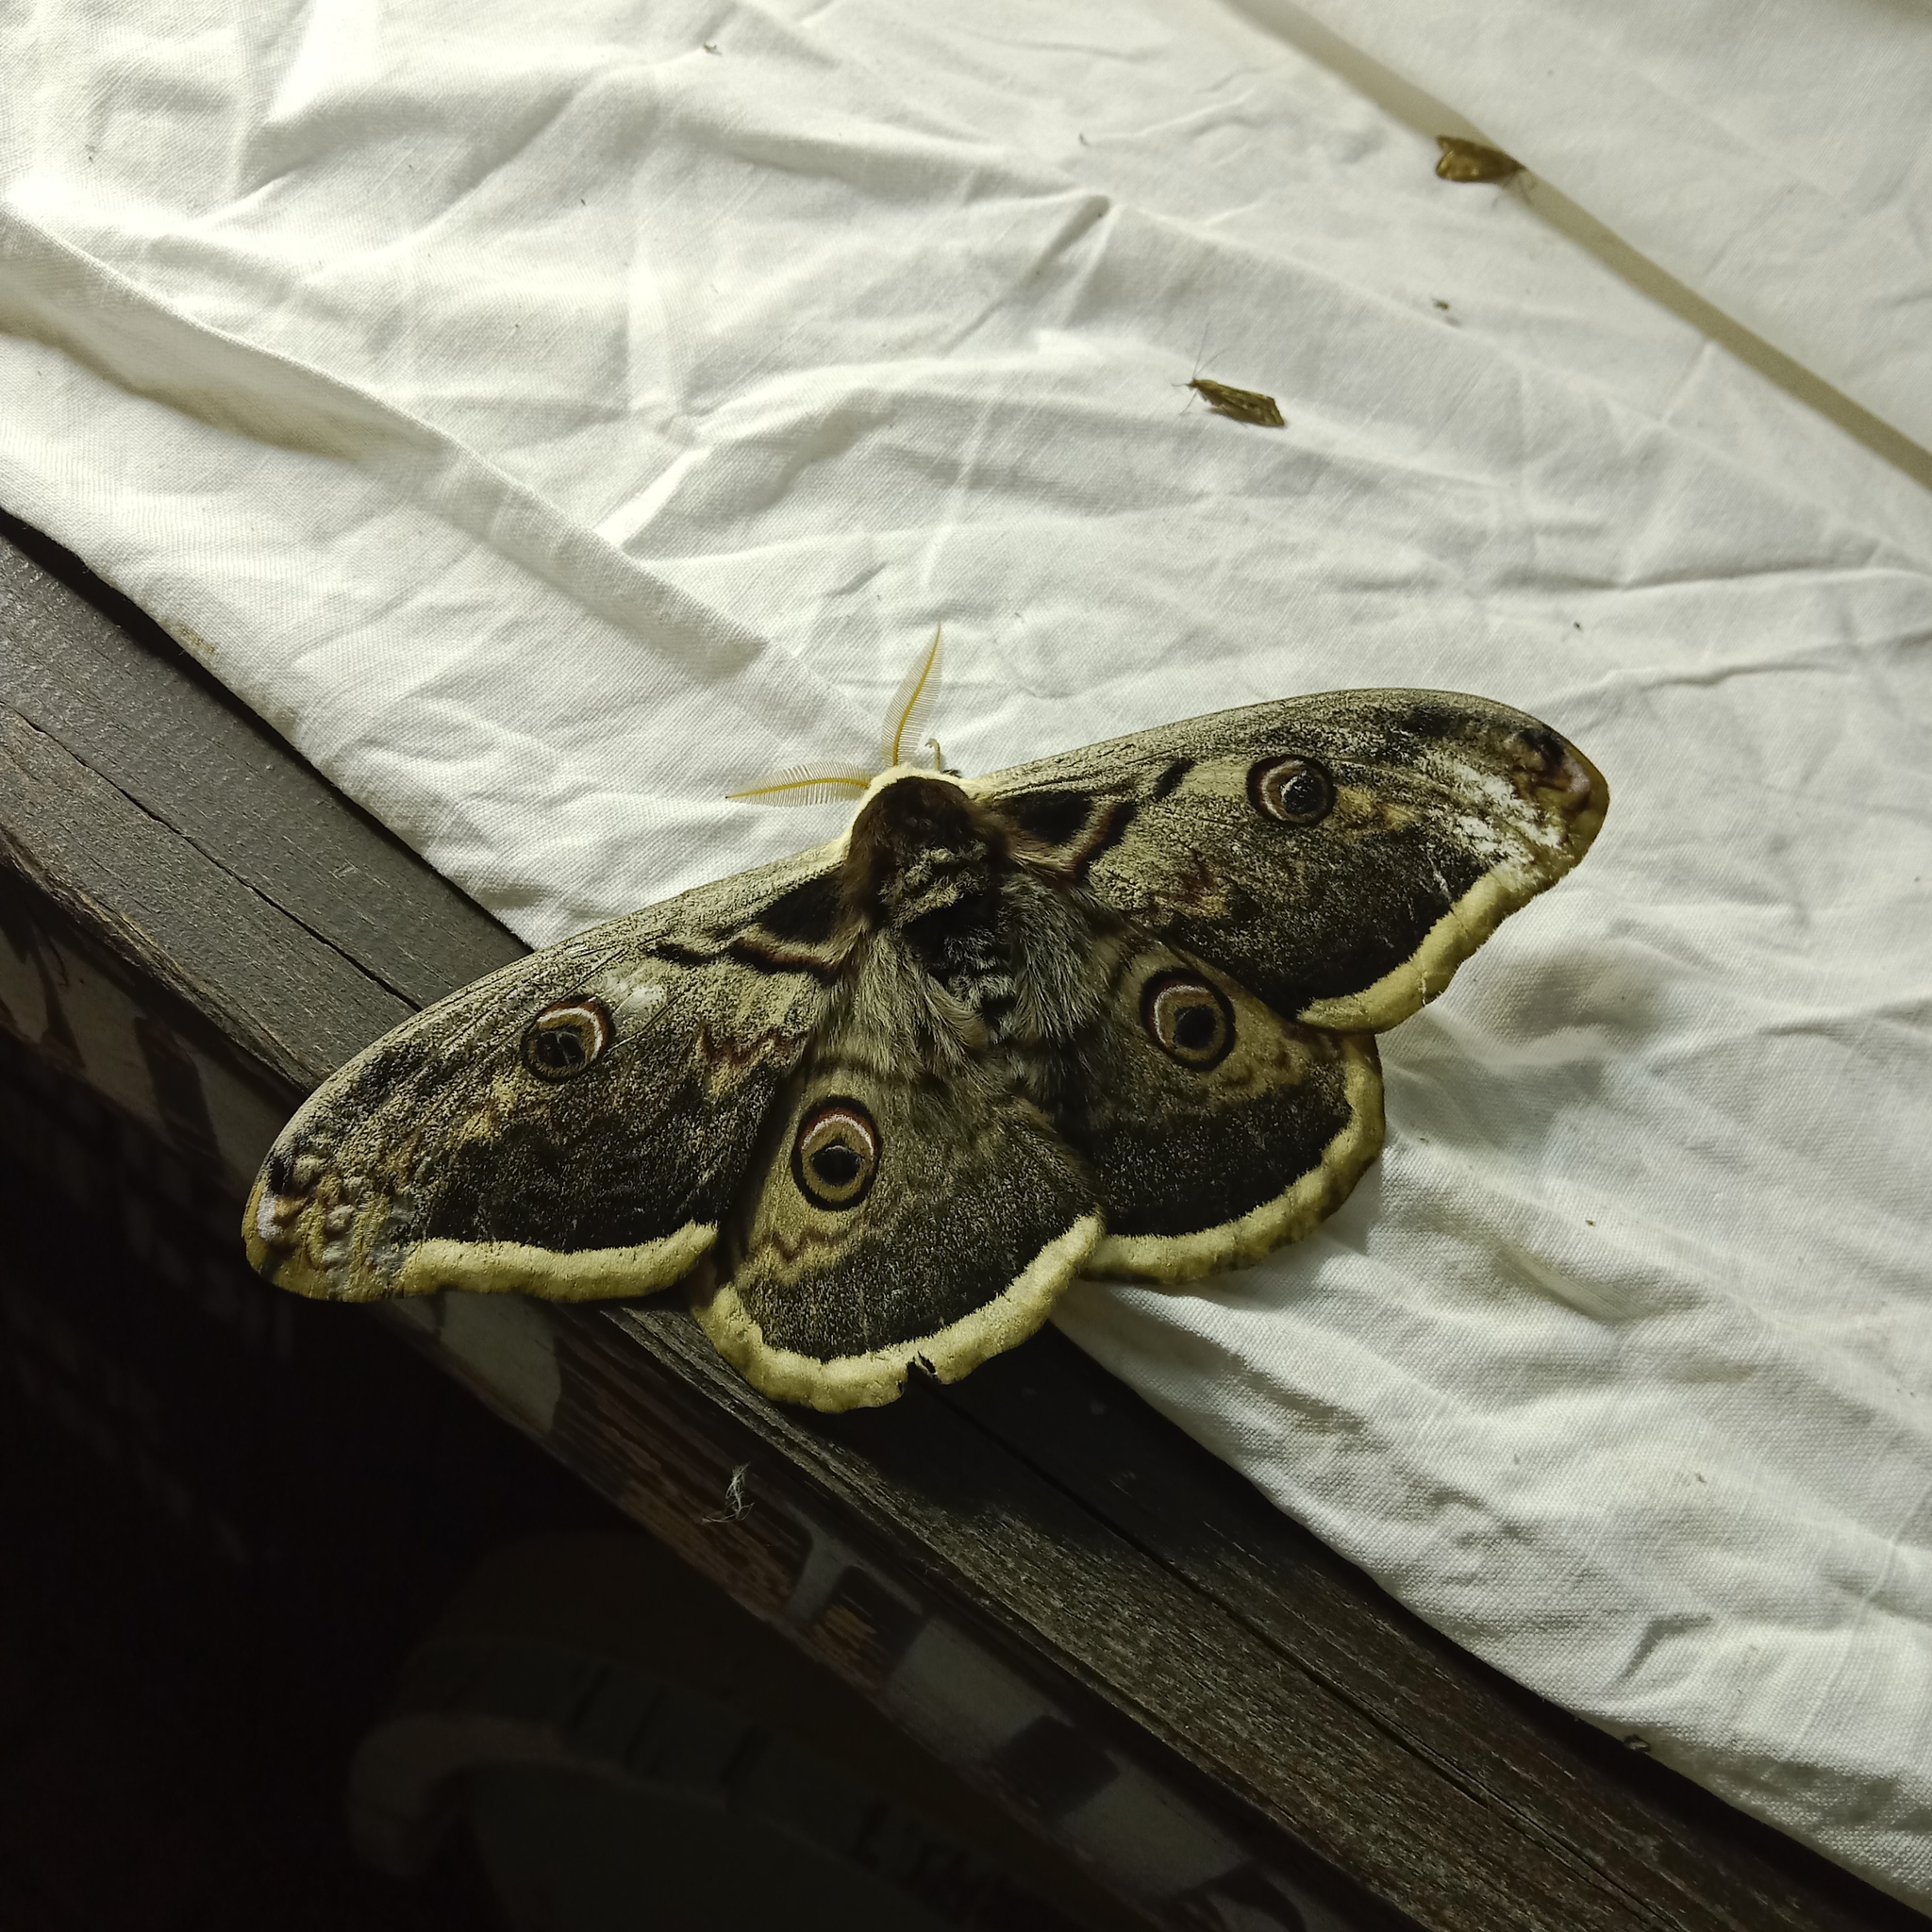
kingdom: Animalia
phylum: Arthropoda
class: Insecta
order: Lepidoptera
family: Saturniidae
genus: Saturnia
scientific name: Saturnia pyri
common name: Great peacock moth
